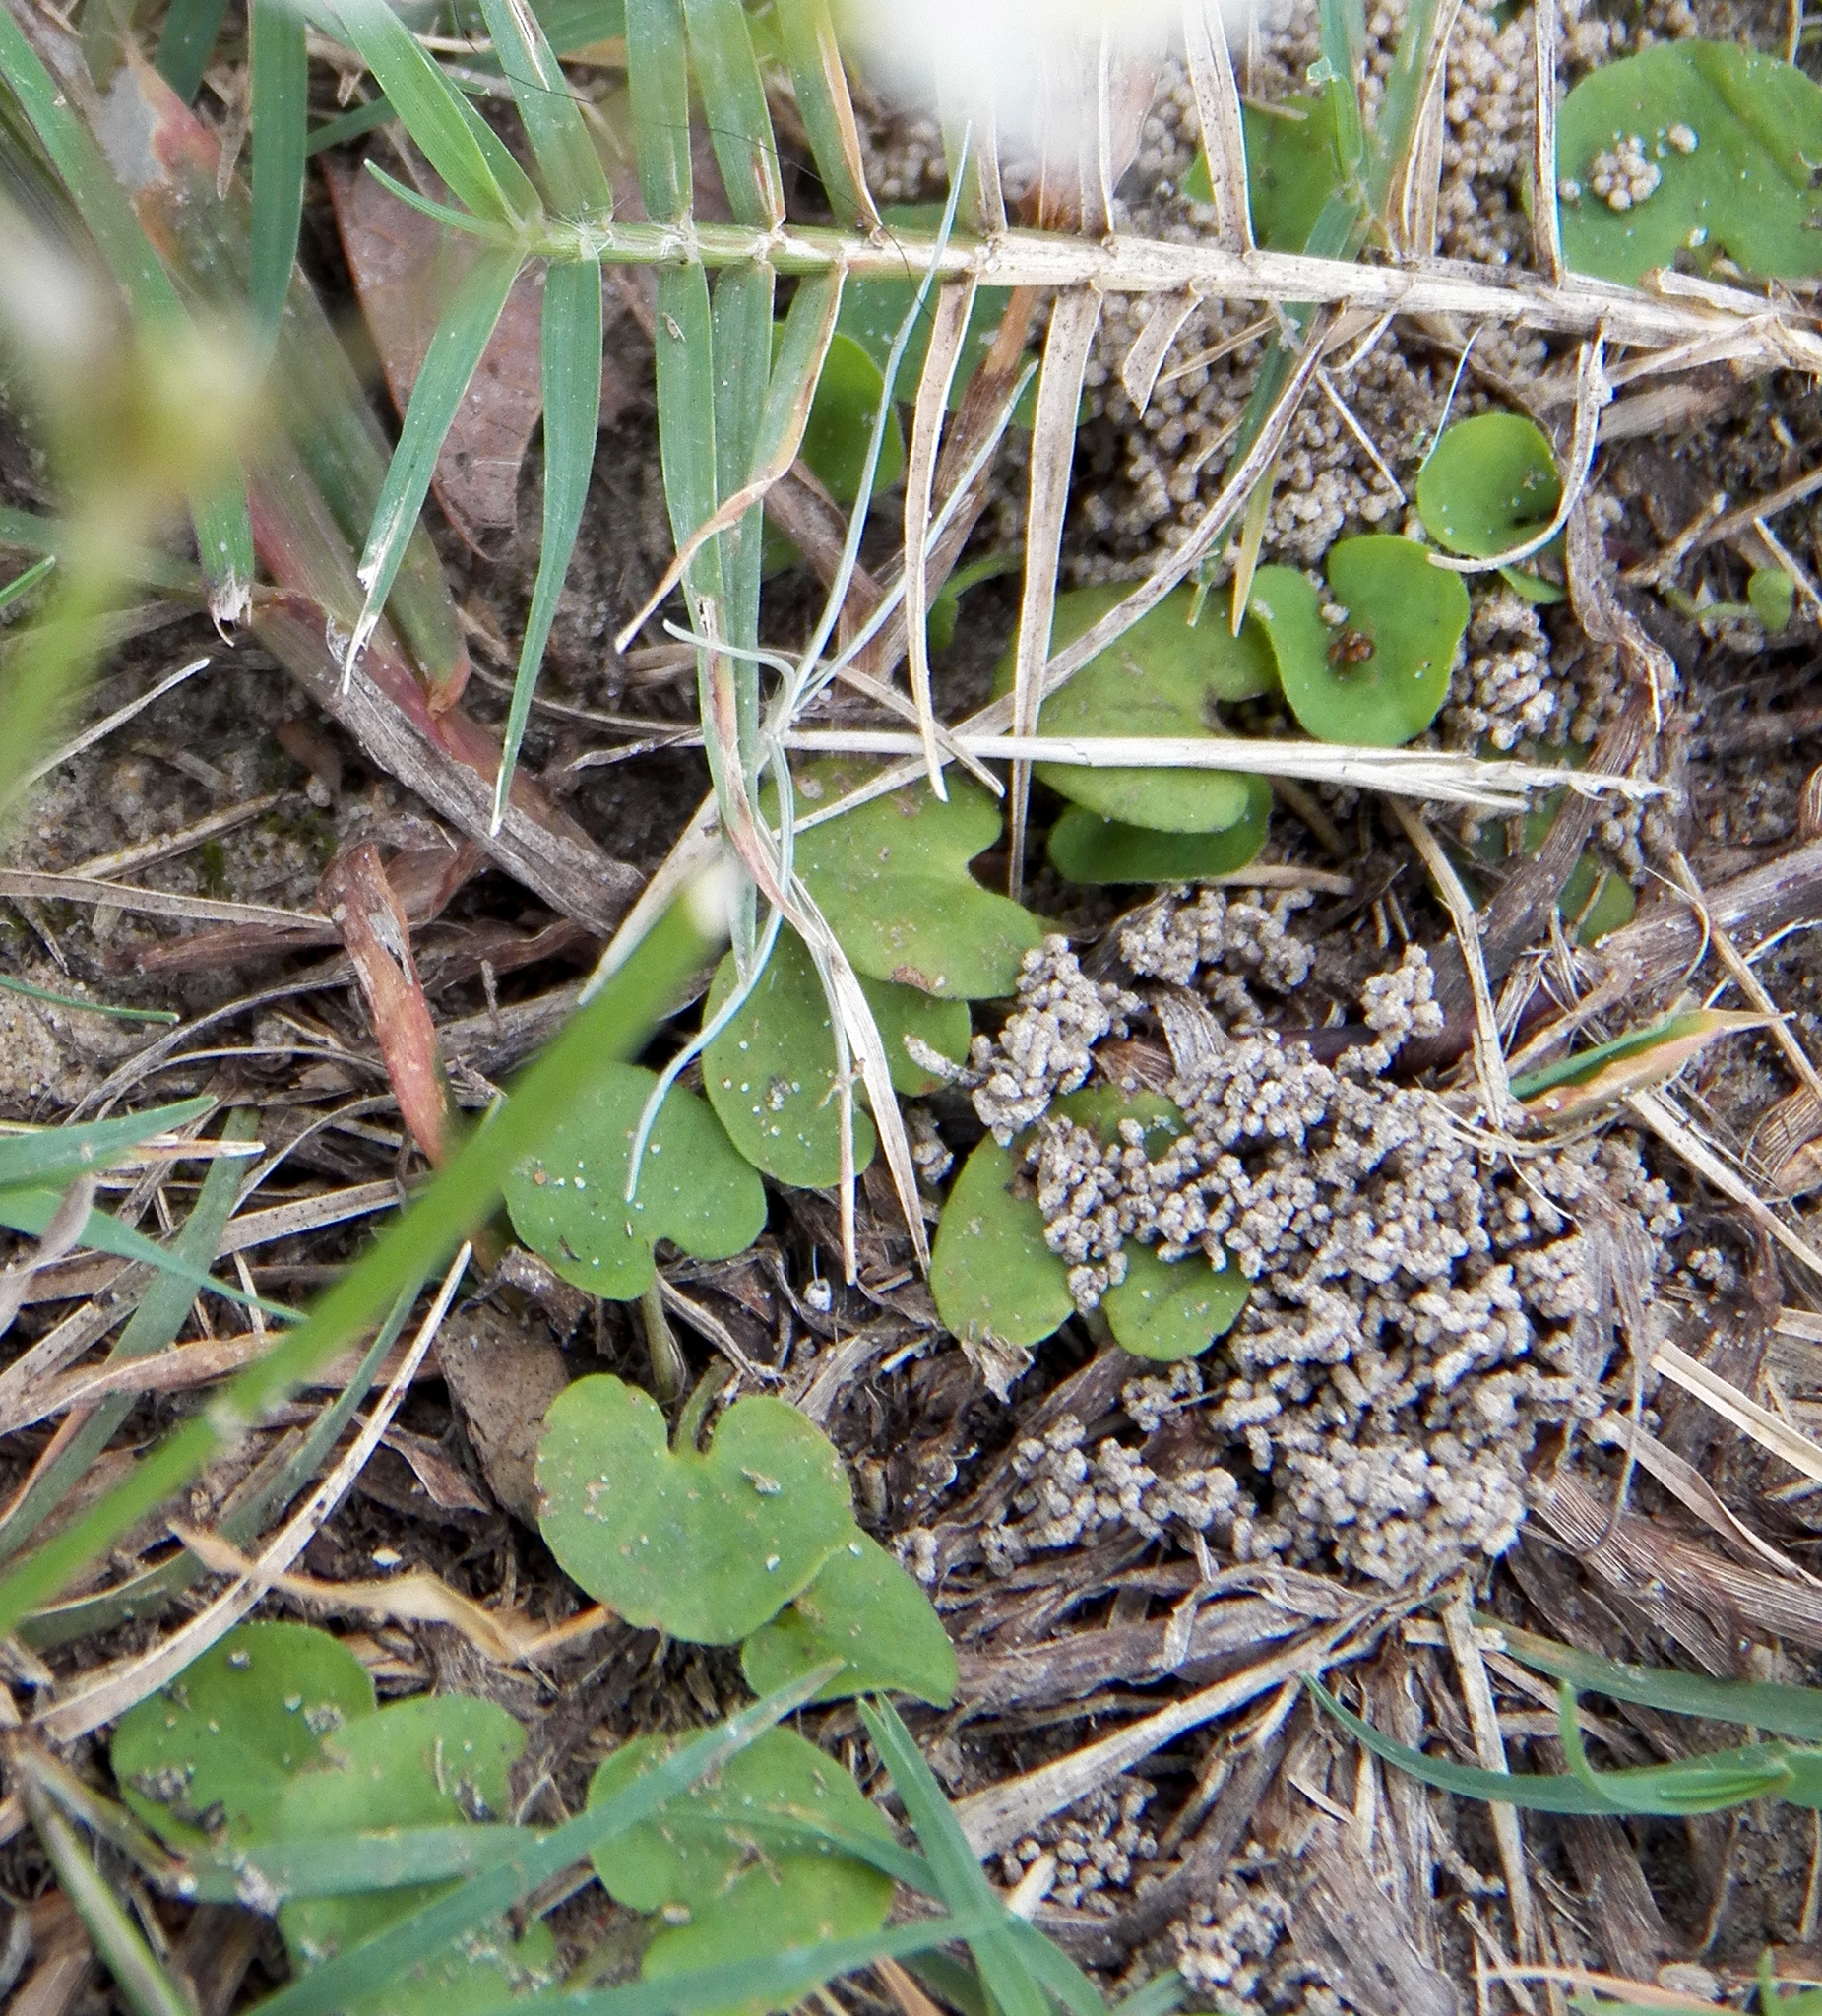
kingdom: Plantae
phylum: Tracheophyta
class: Magnoliopsida
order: Solanales
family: Convolvulaceae
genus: Dichondra
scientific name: Dichondra carolinensis
